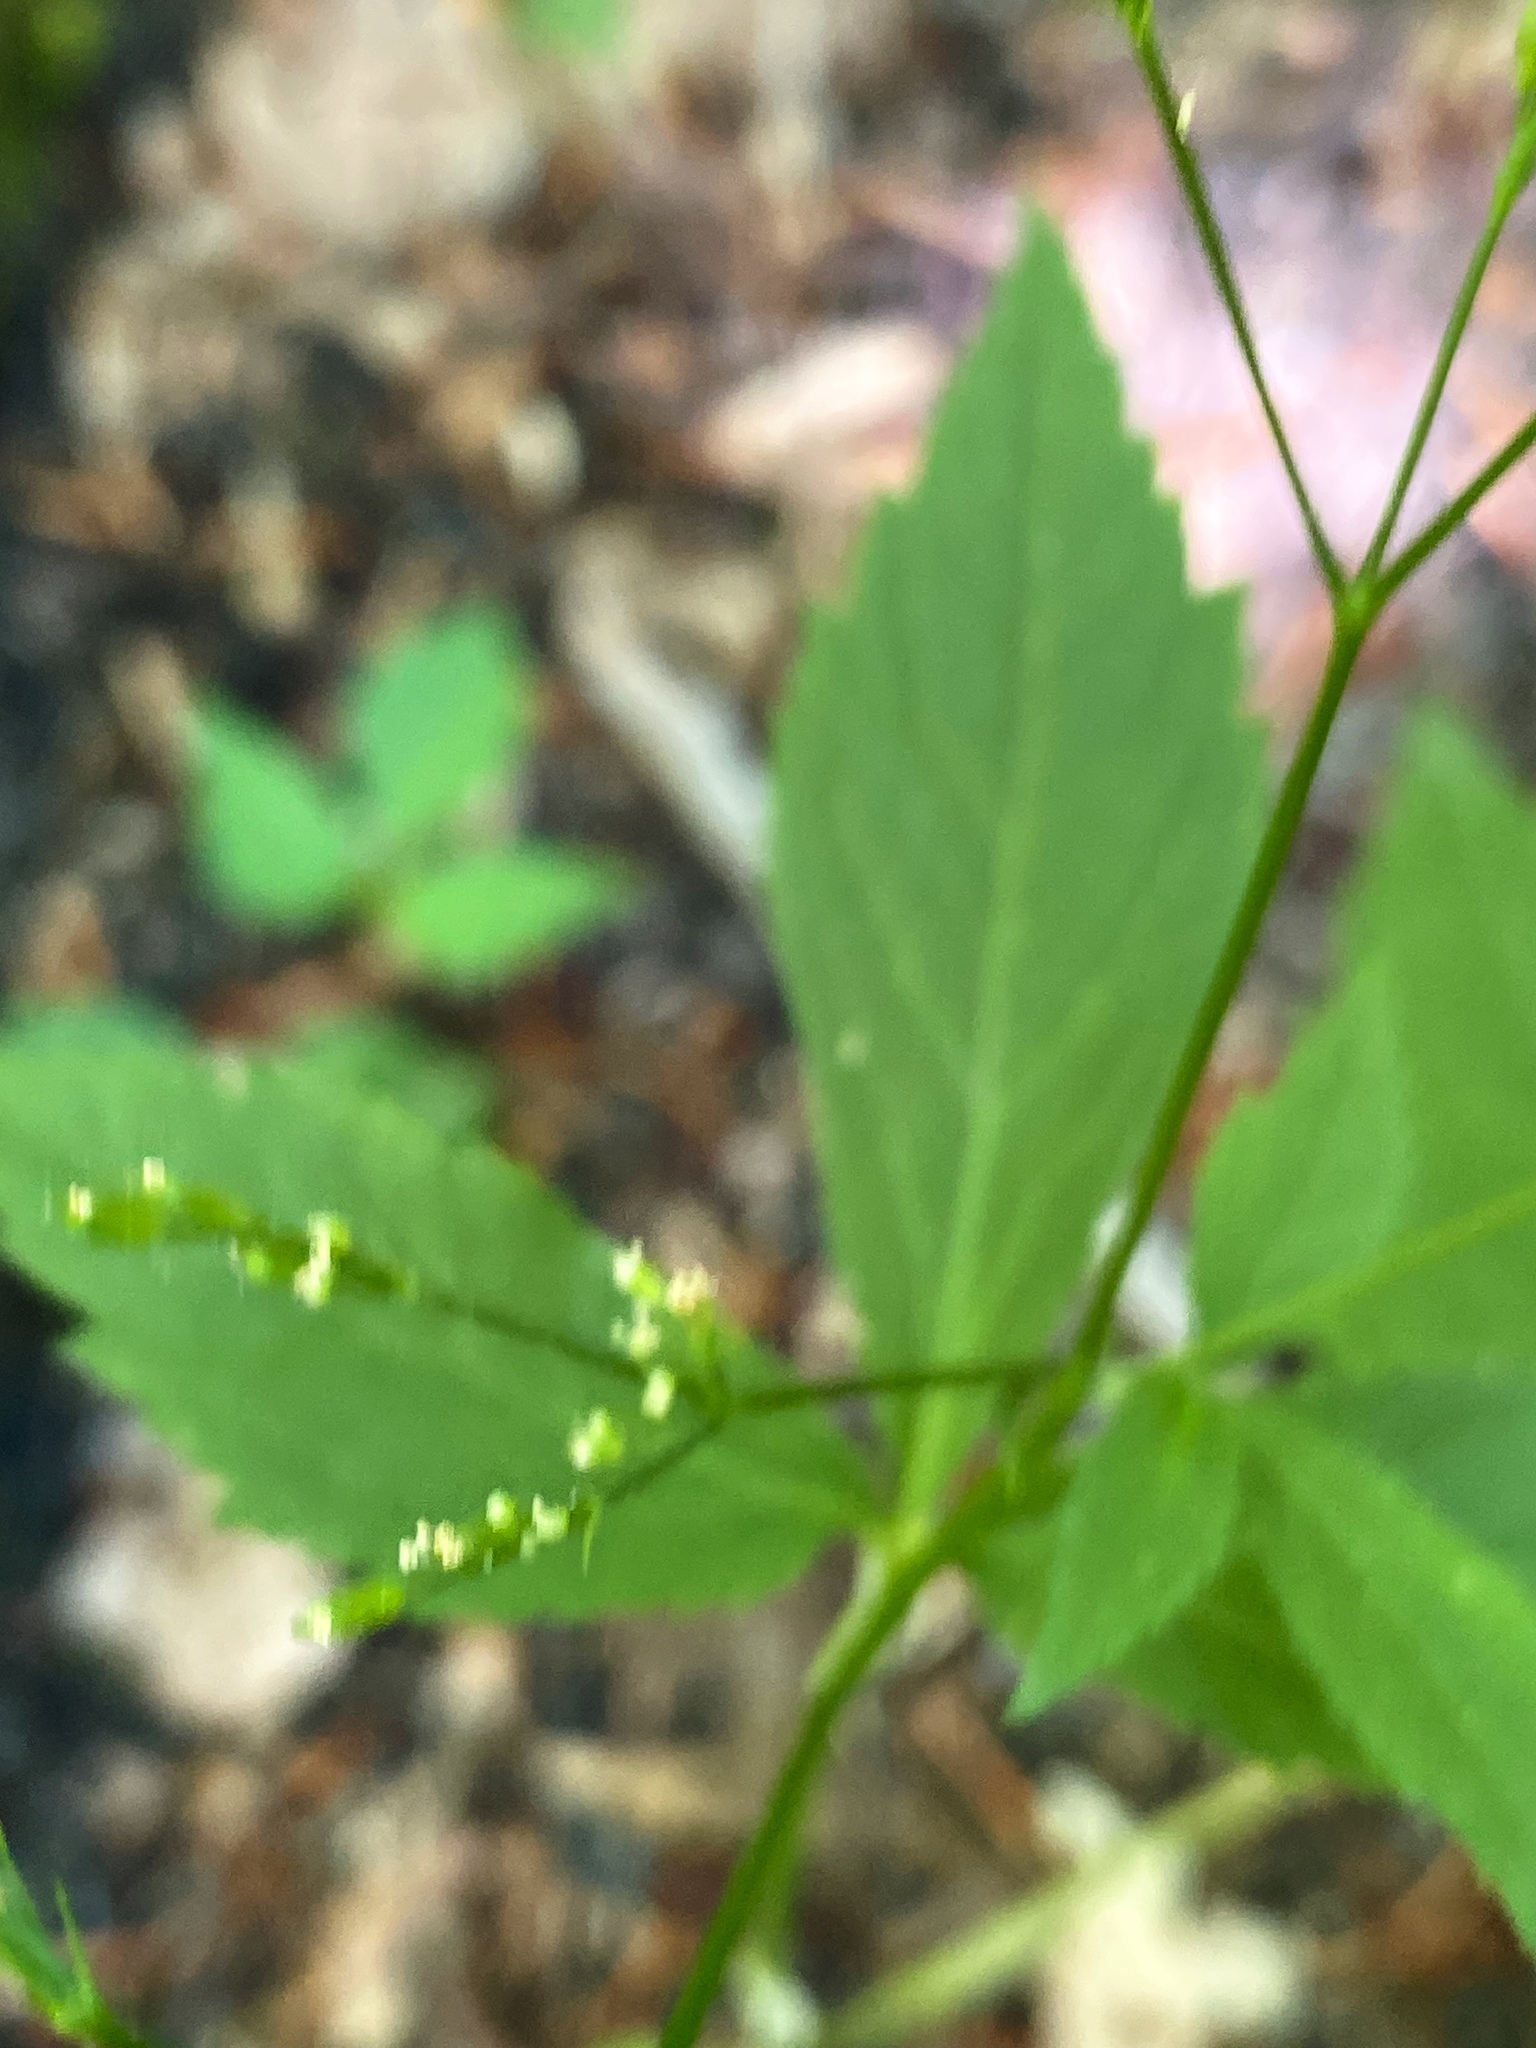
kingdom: Plantae
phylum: Tracheophyta
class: Magnoliopsida
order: Apiales
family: Apiaceae
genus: Cryptotaenia
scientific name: Cryptotaenia canadensis
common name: Honewort
